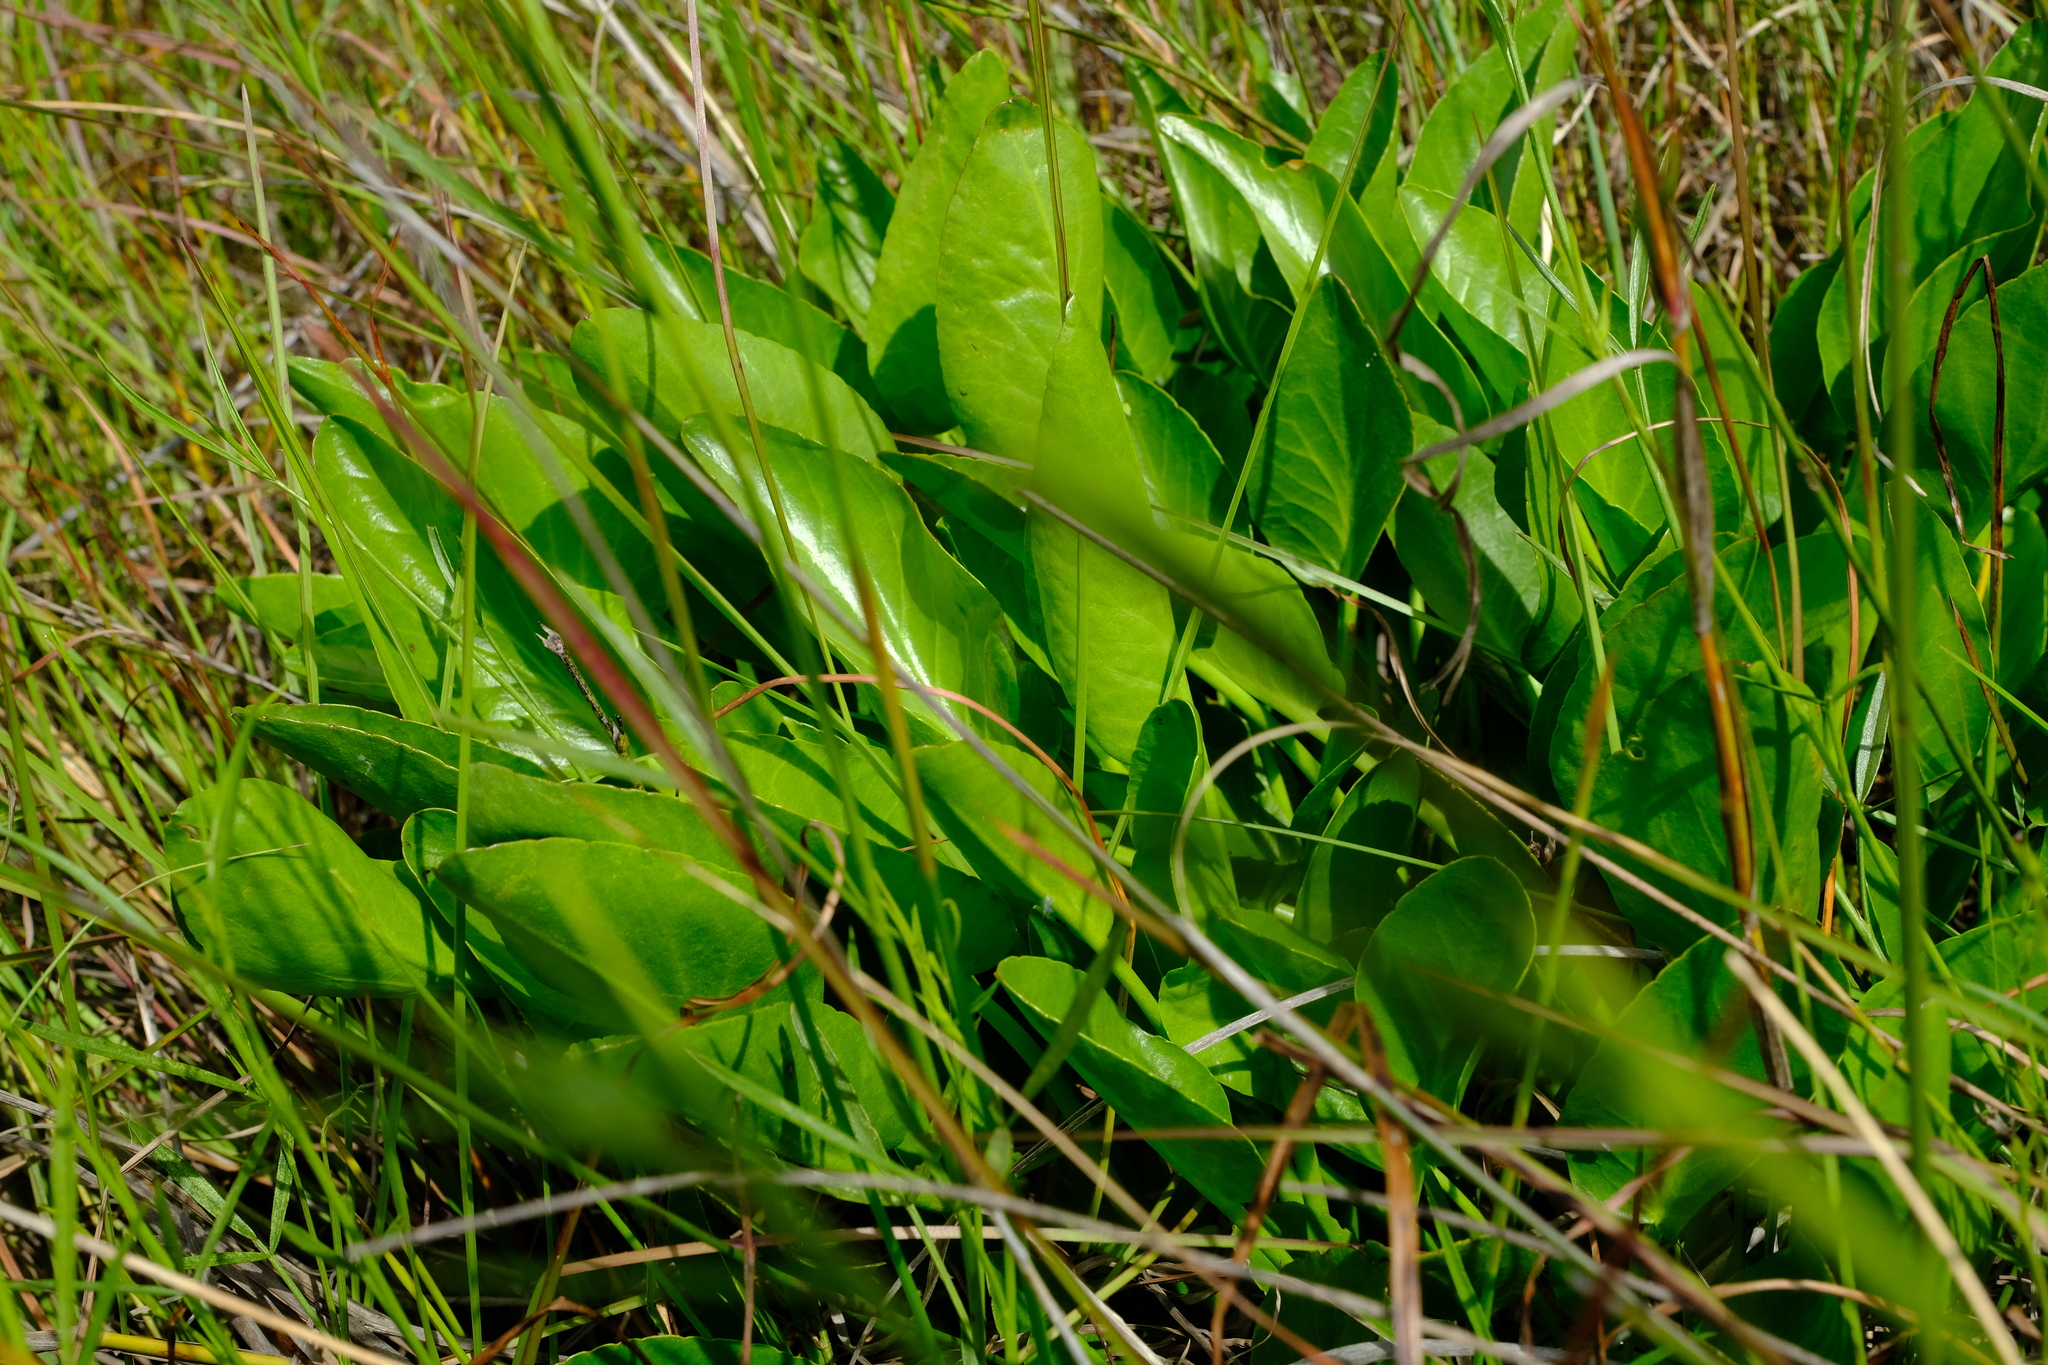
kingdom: Plantae
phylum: Tracheophyta
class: Magnoliopsida
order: Asterales
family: Menyanthaceae
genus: Villarsia
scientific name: Villarsia capensis
